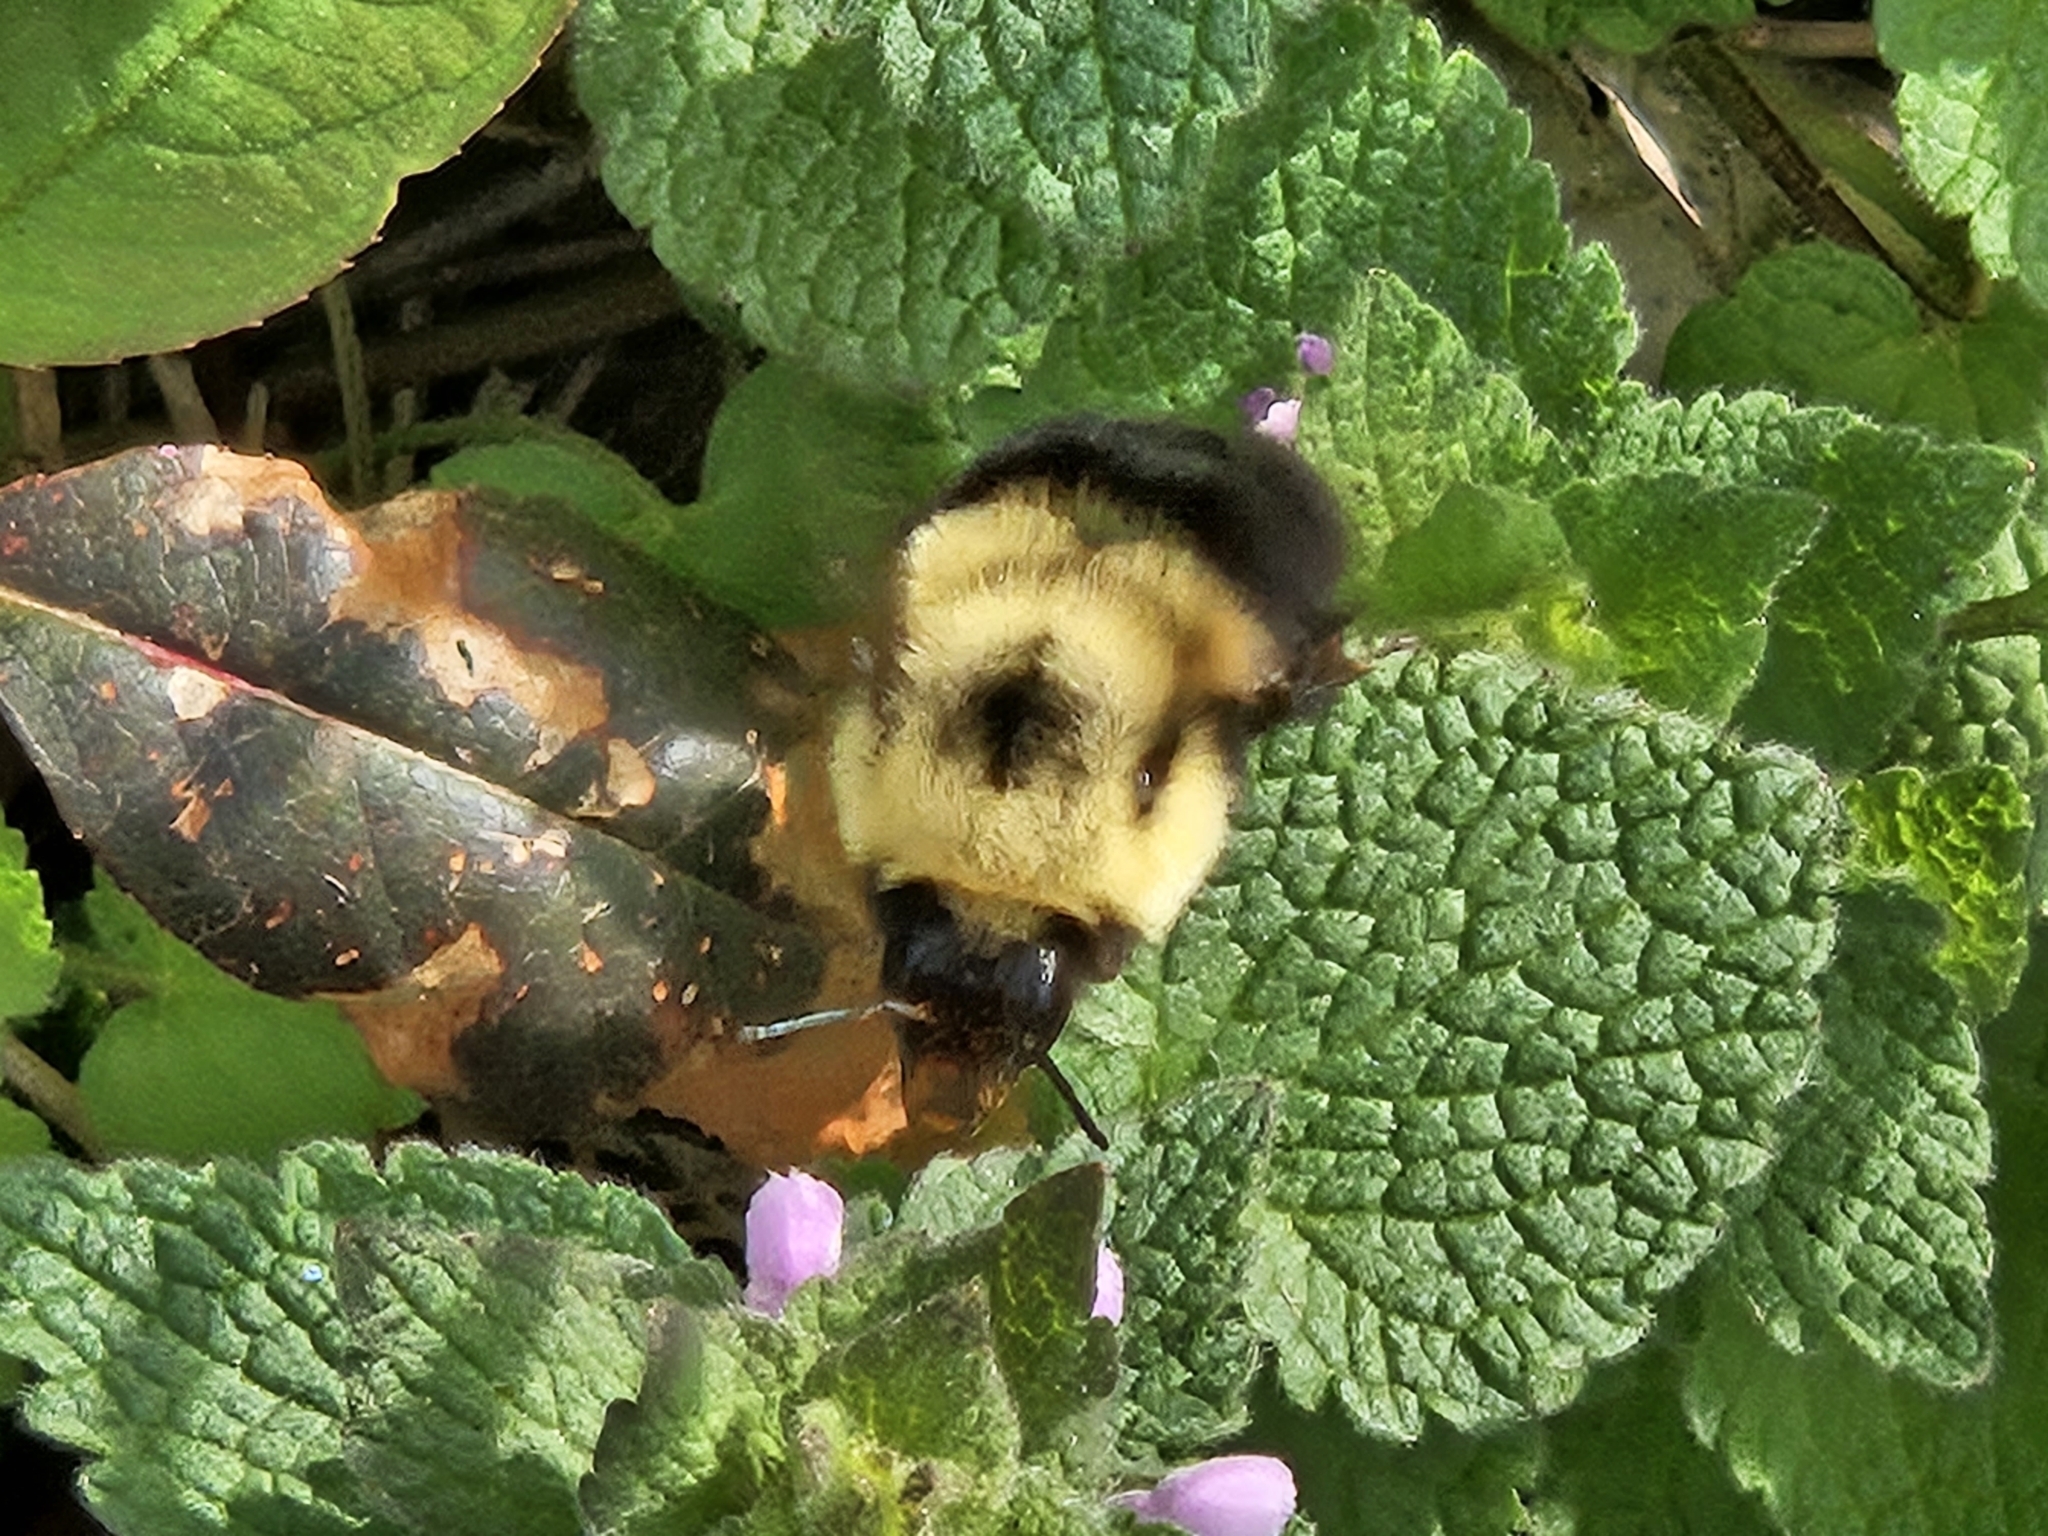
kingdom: Animalia
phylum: Arthropoda
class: Insecta
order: Hymenoptera
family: Apidae
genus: Bombus
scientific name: Bombus bimaculatus
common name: Two-spotted bumble bee
